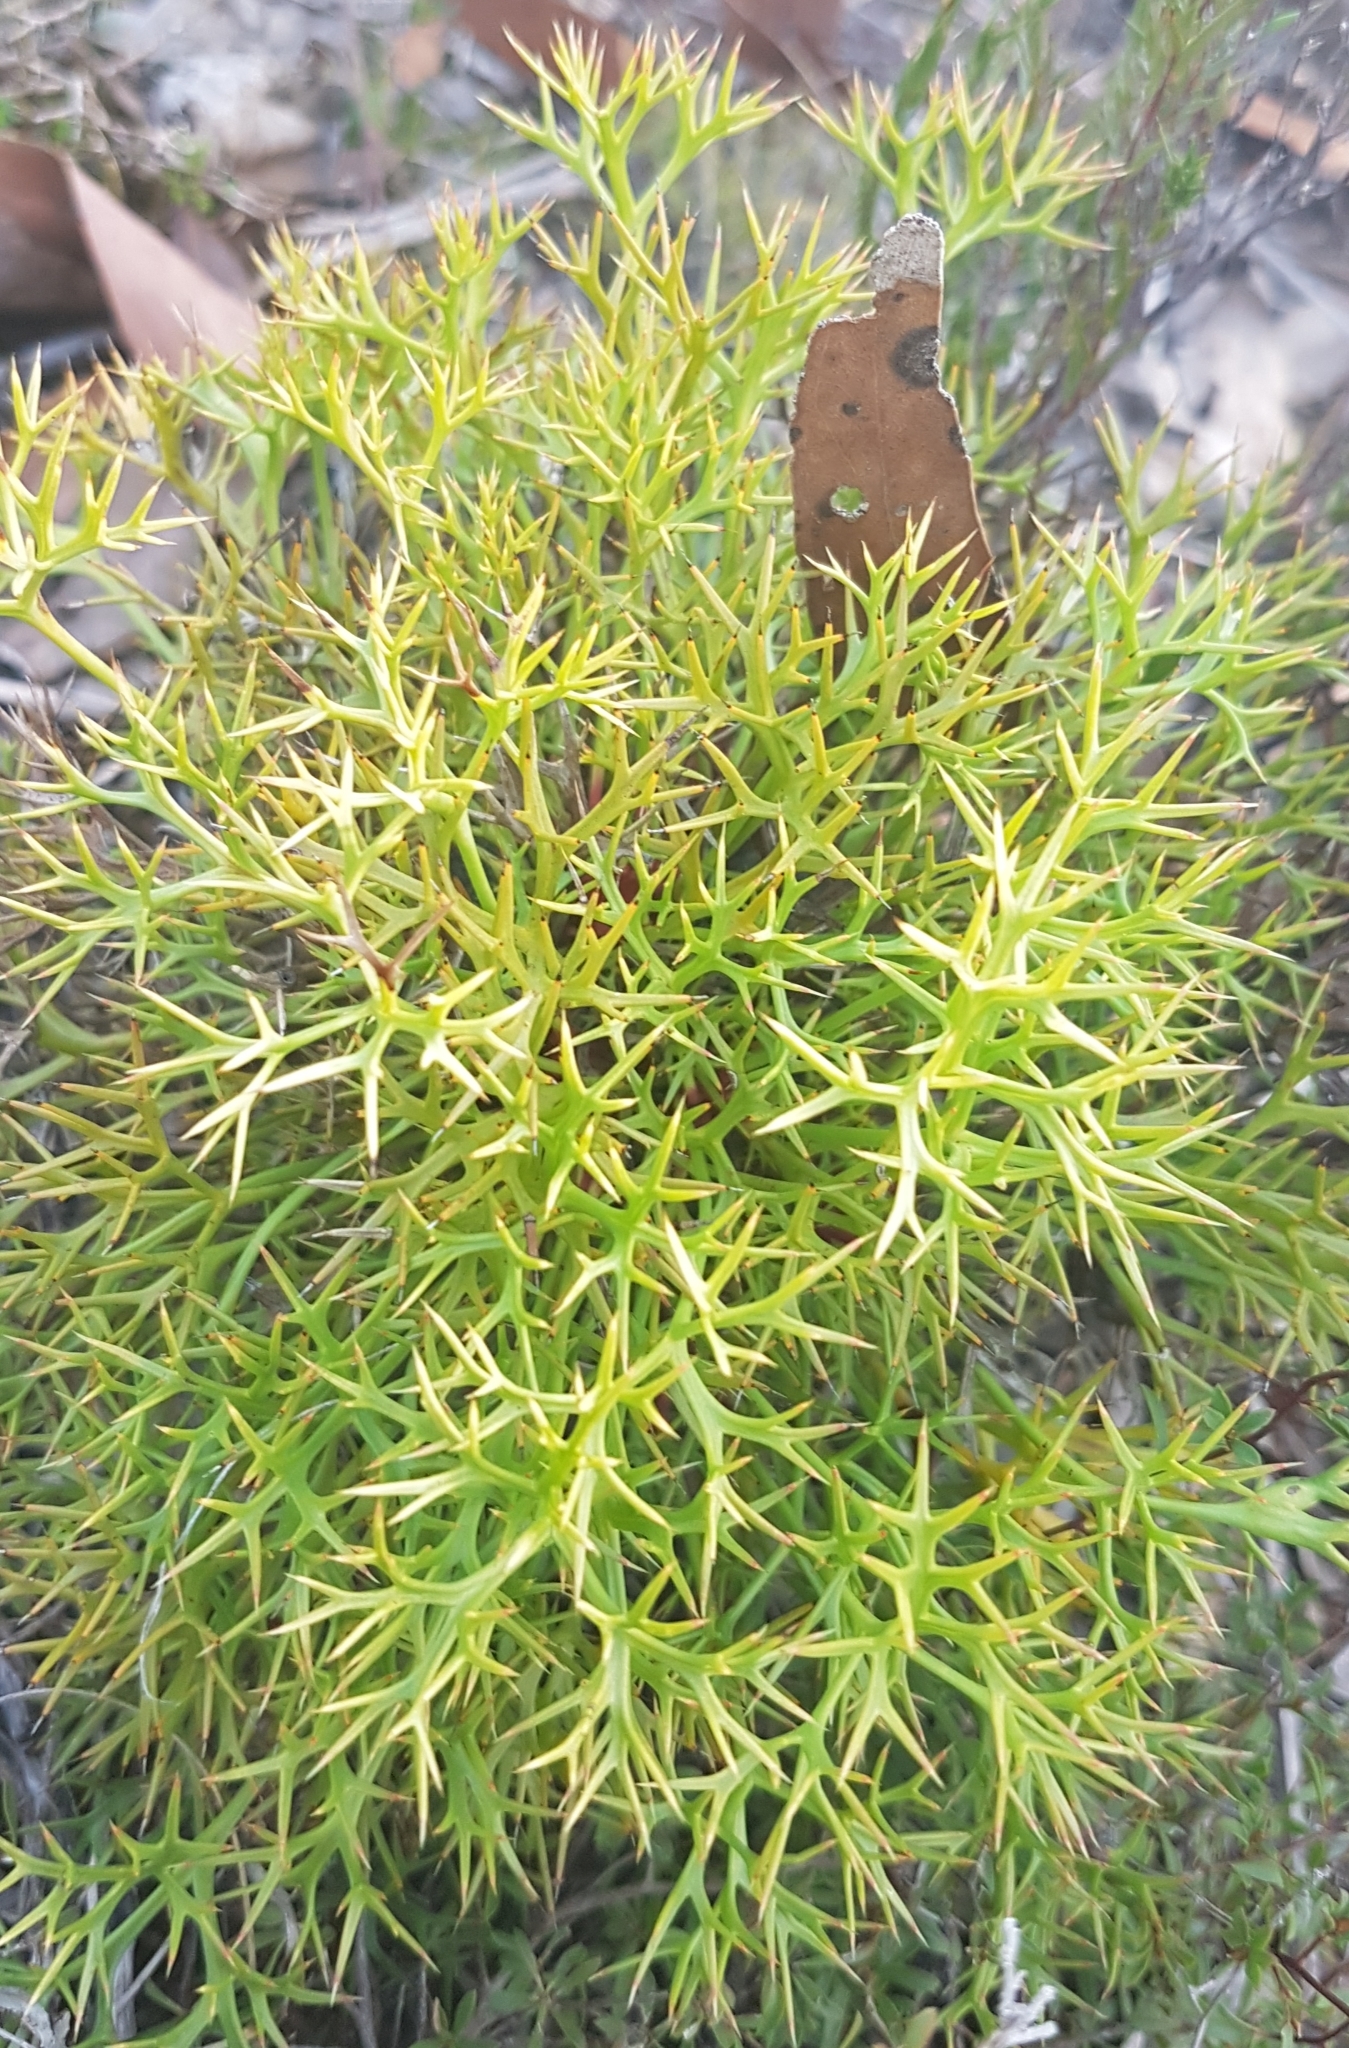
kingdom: Plantae
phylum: Tracheophyta
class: Magnoliopsida
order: Proteales
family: Proteaceae
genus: Isopogon
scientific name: Isopogon ceratophyllus
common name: Horny cone-bush
